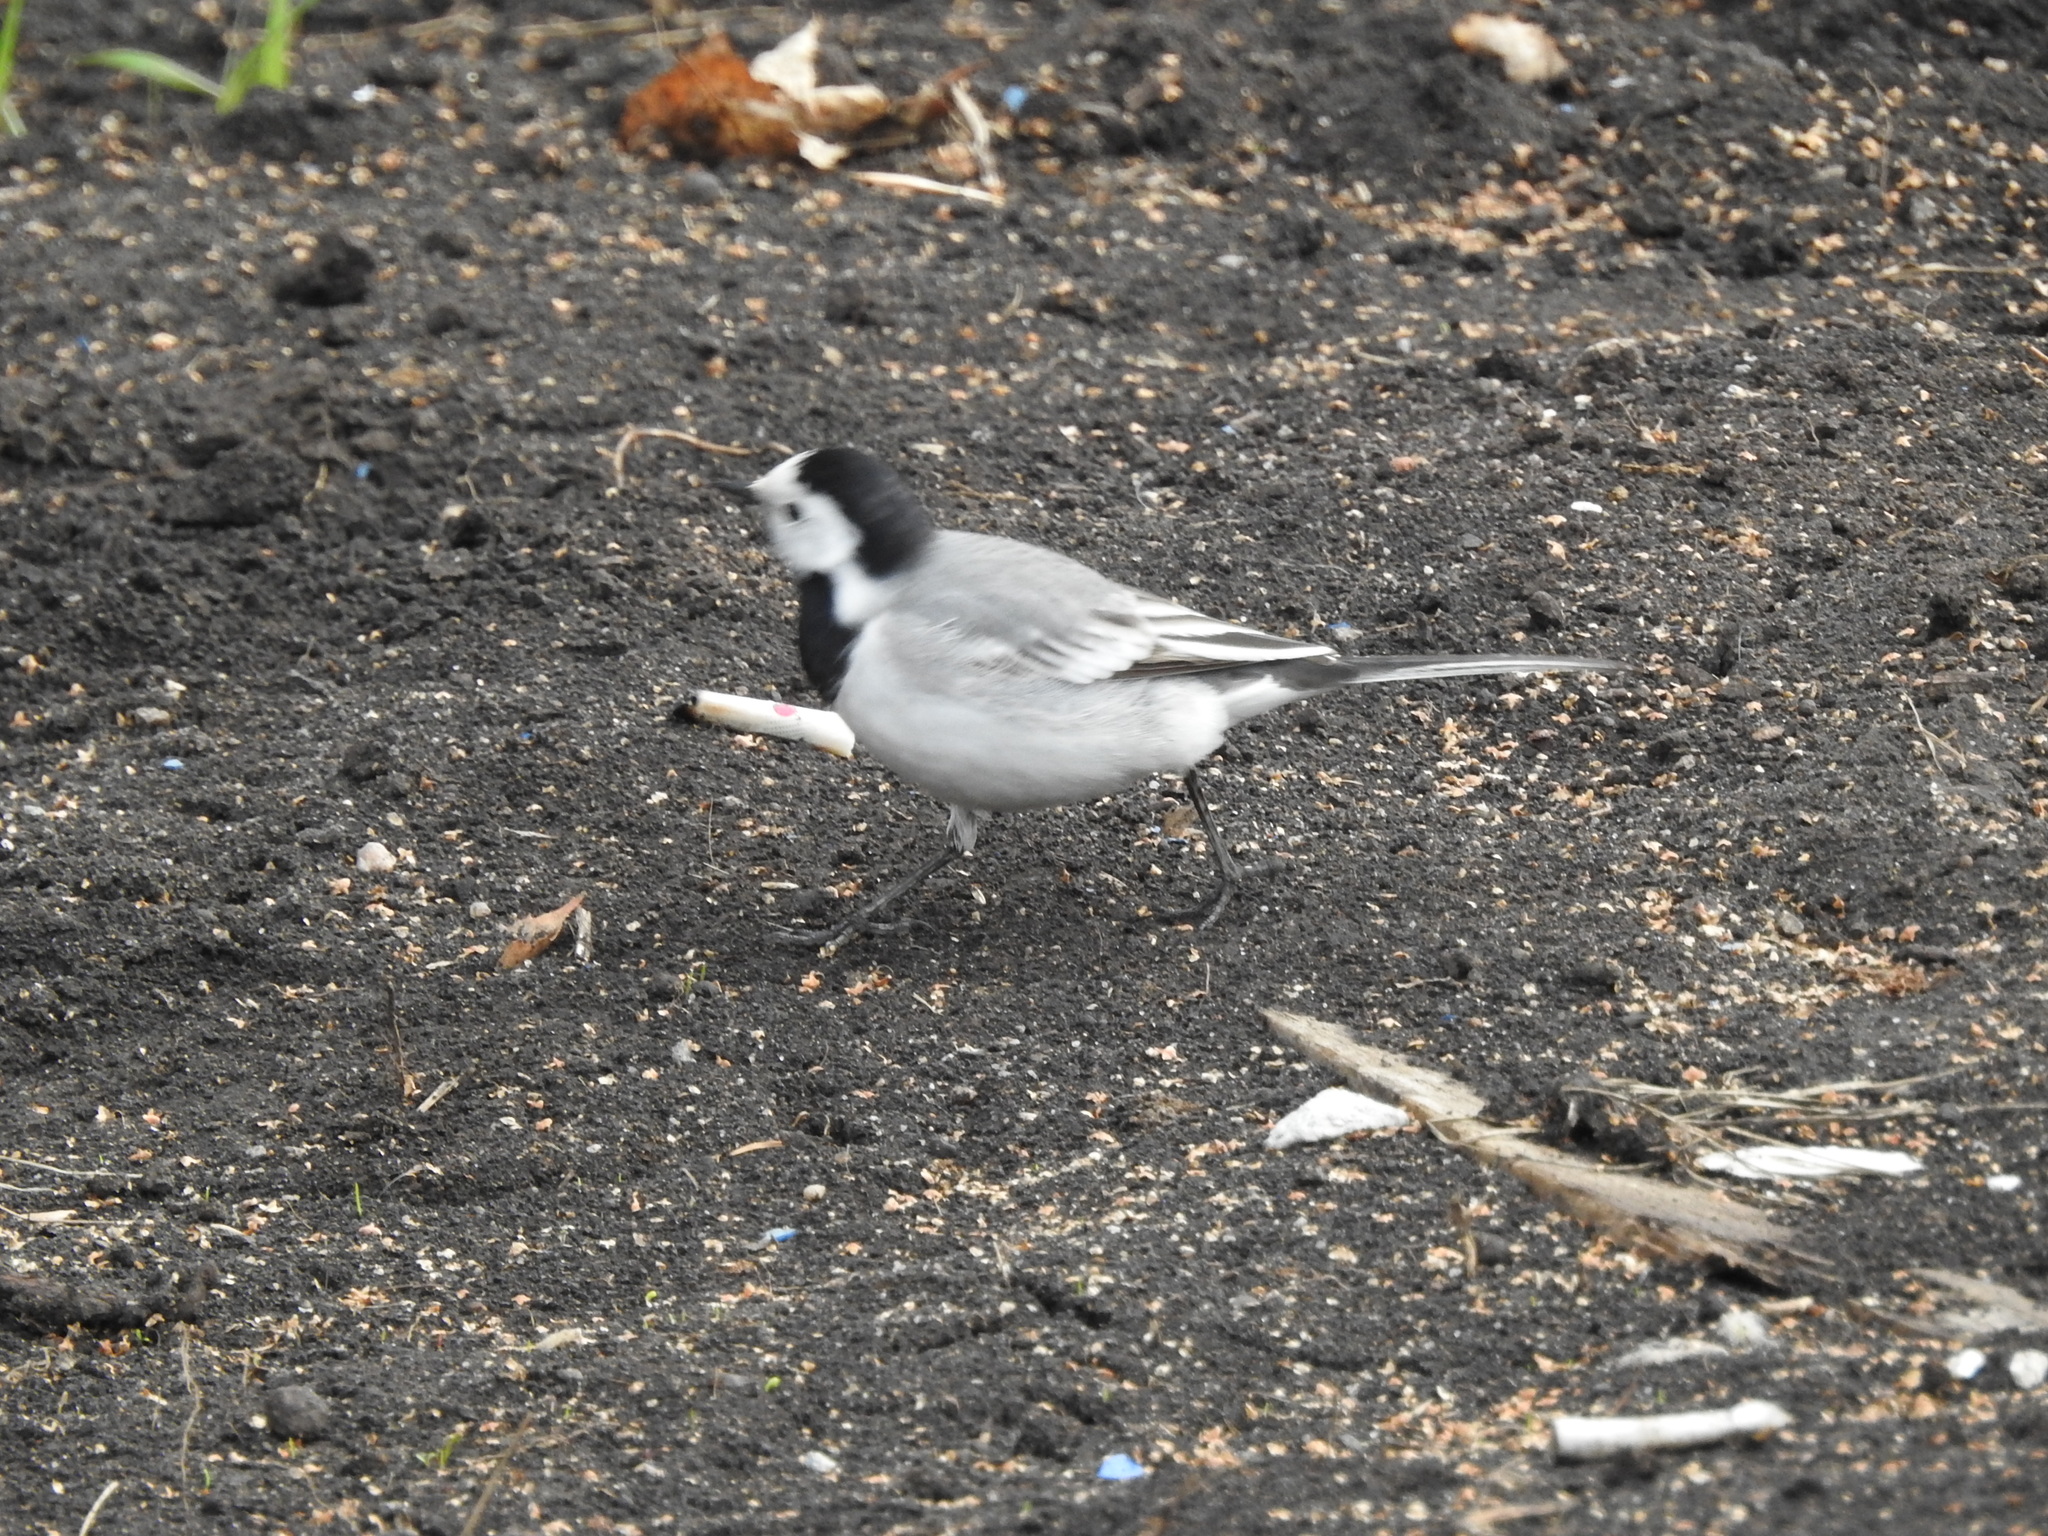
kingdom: Animalia
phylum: Chordata
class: Aves
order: Passeriformes
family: Motacillidae
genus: Motacilla
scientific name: Motacilla alba
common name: White wagtail
